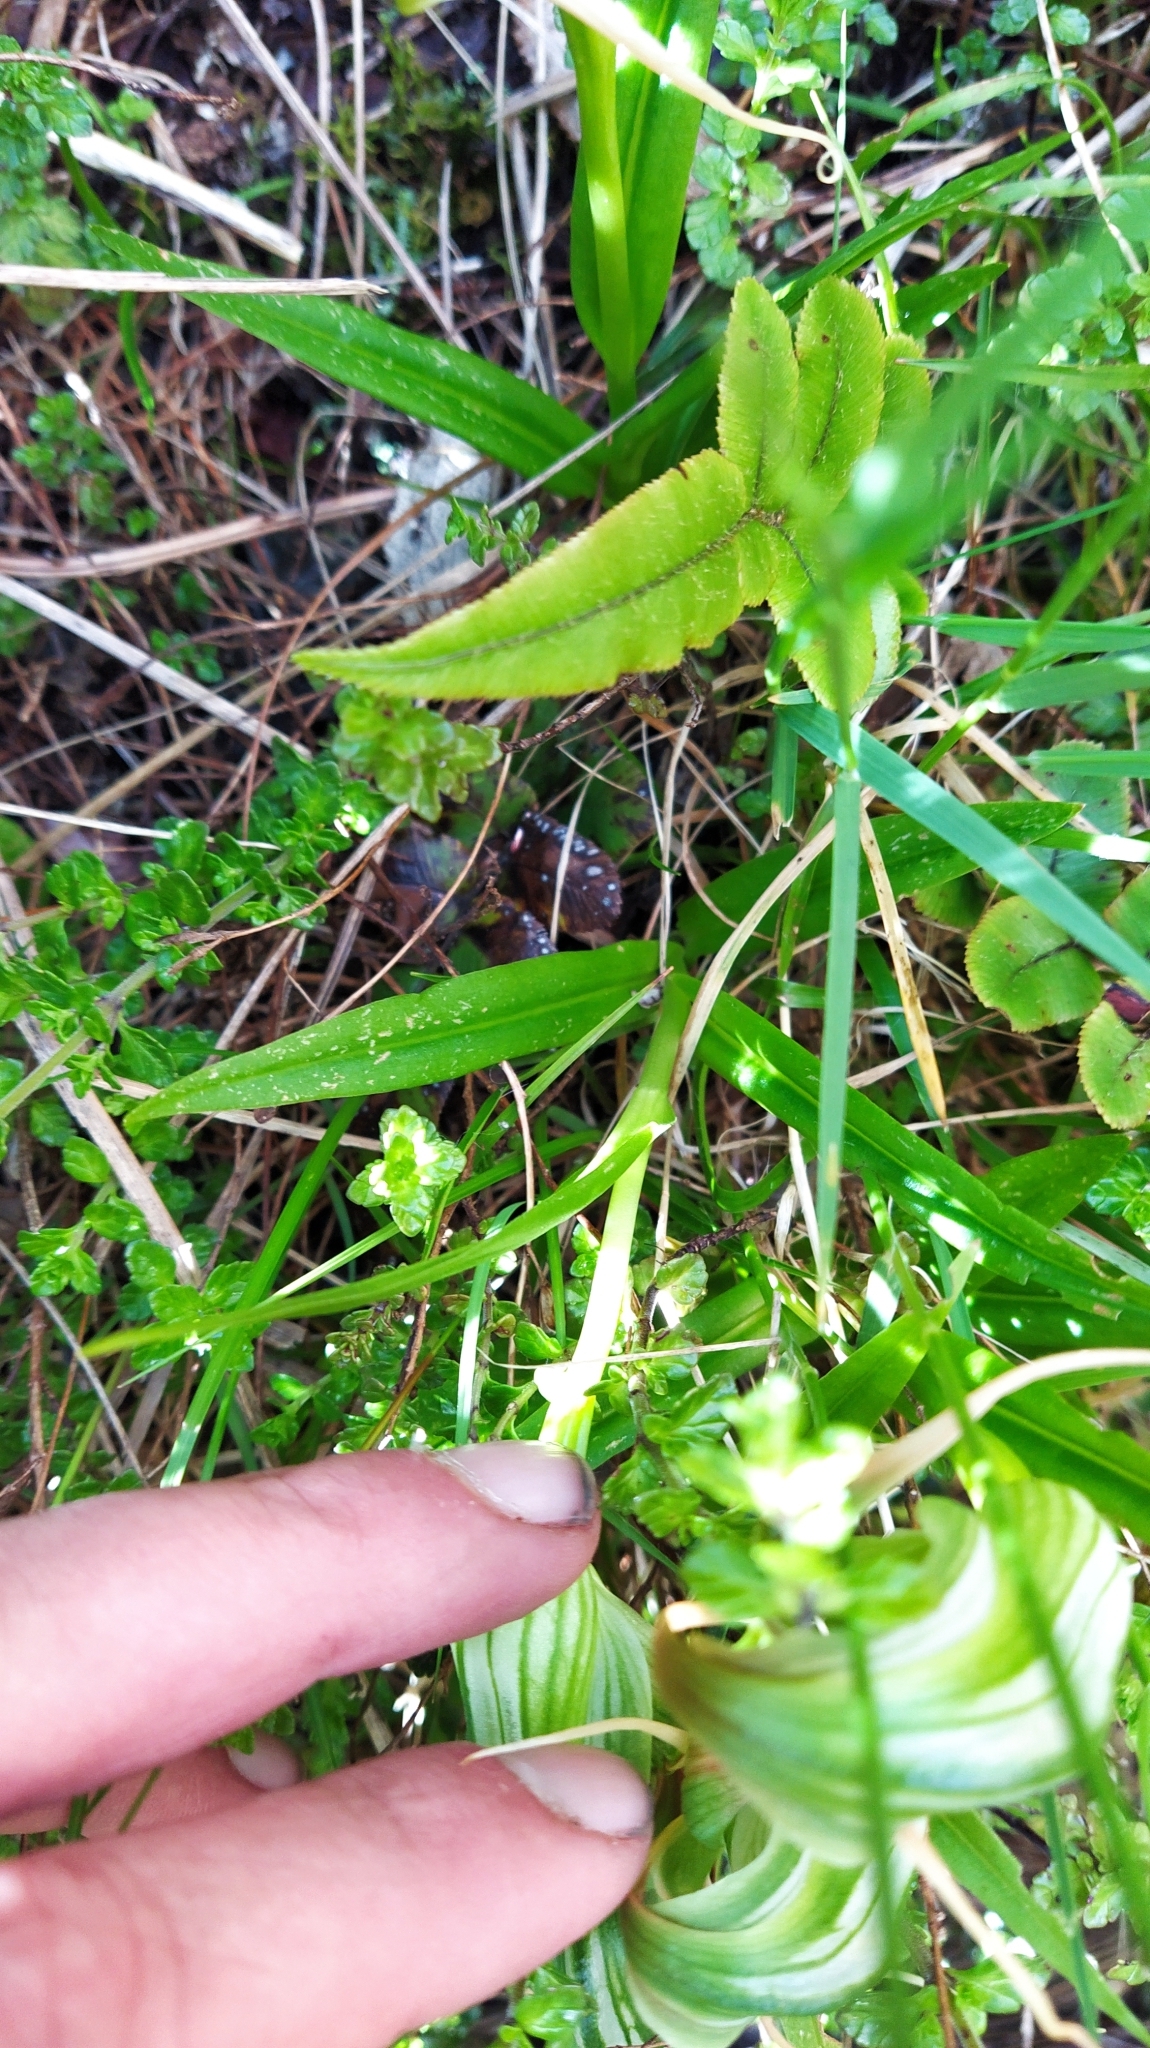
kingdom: Plantae
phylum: Tracheophyta
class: Liliopsida
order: Asparagales
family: Orchidaceae
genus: Pterostylis
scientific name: Pterostylis patens
